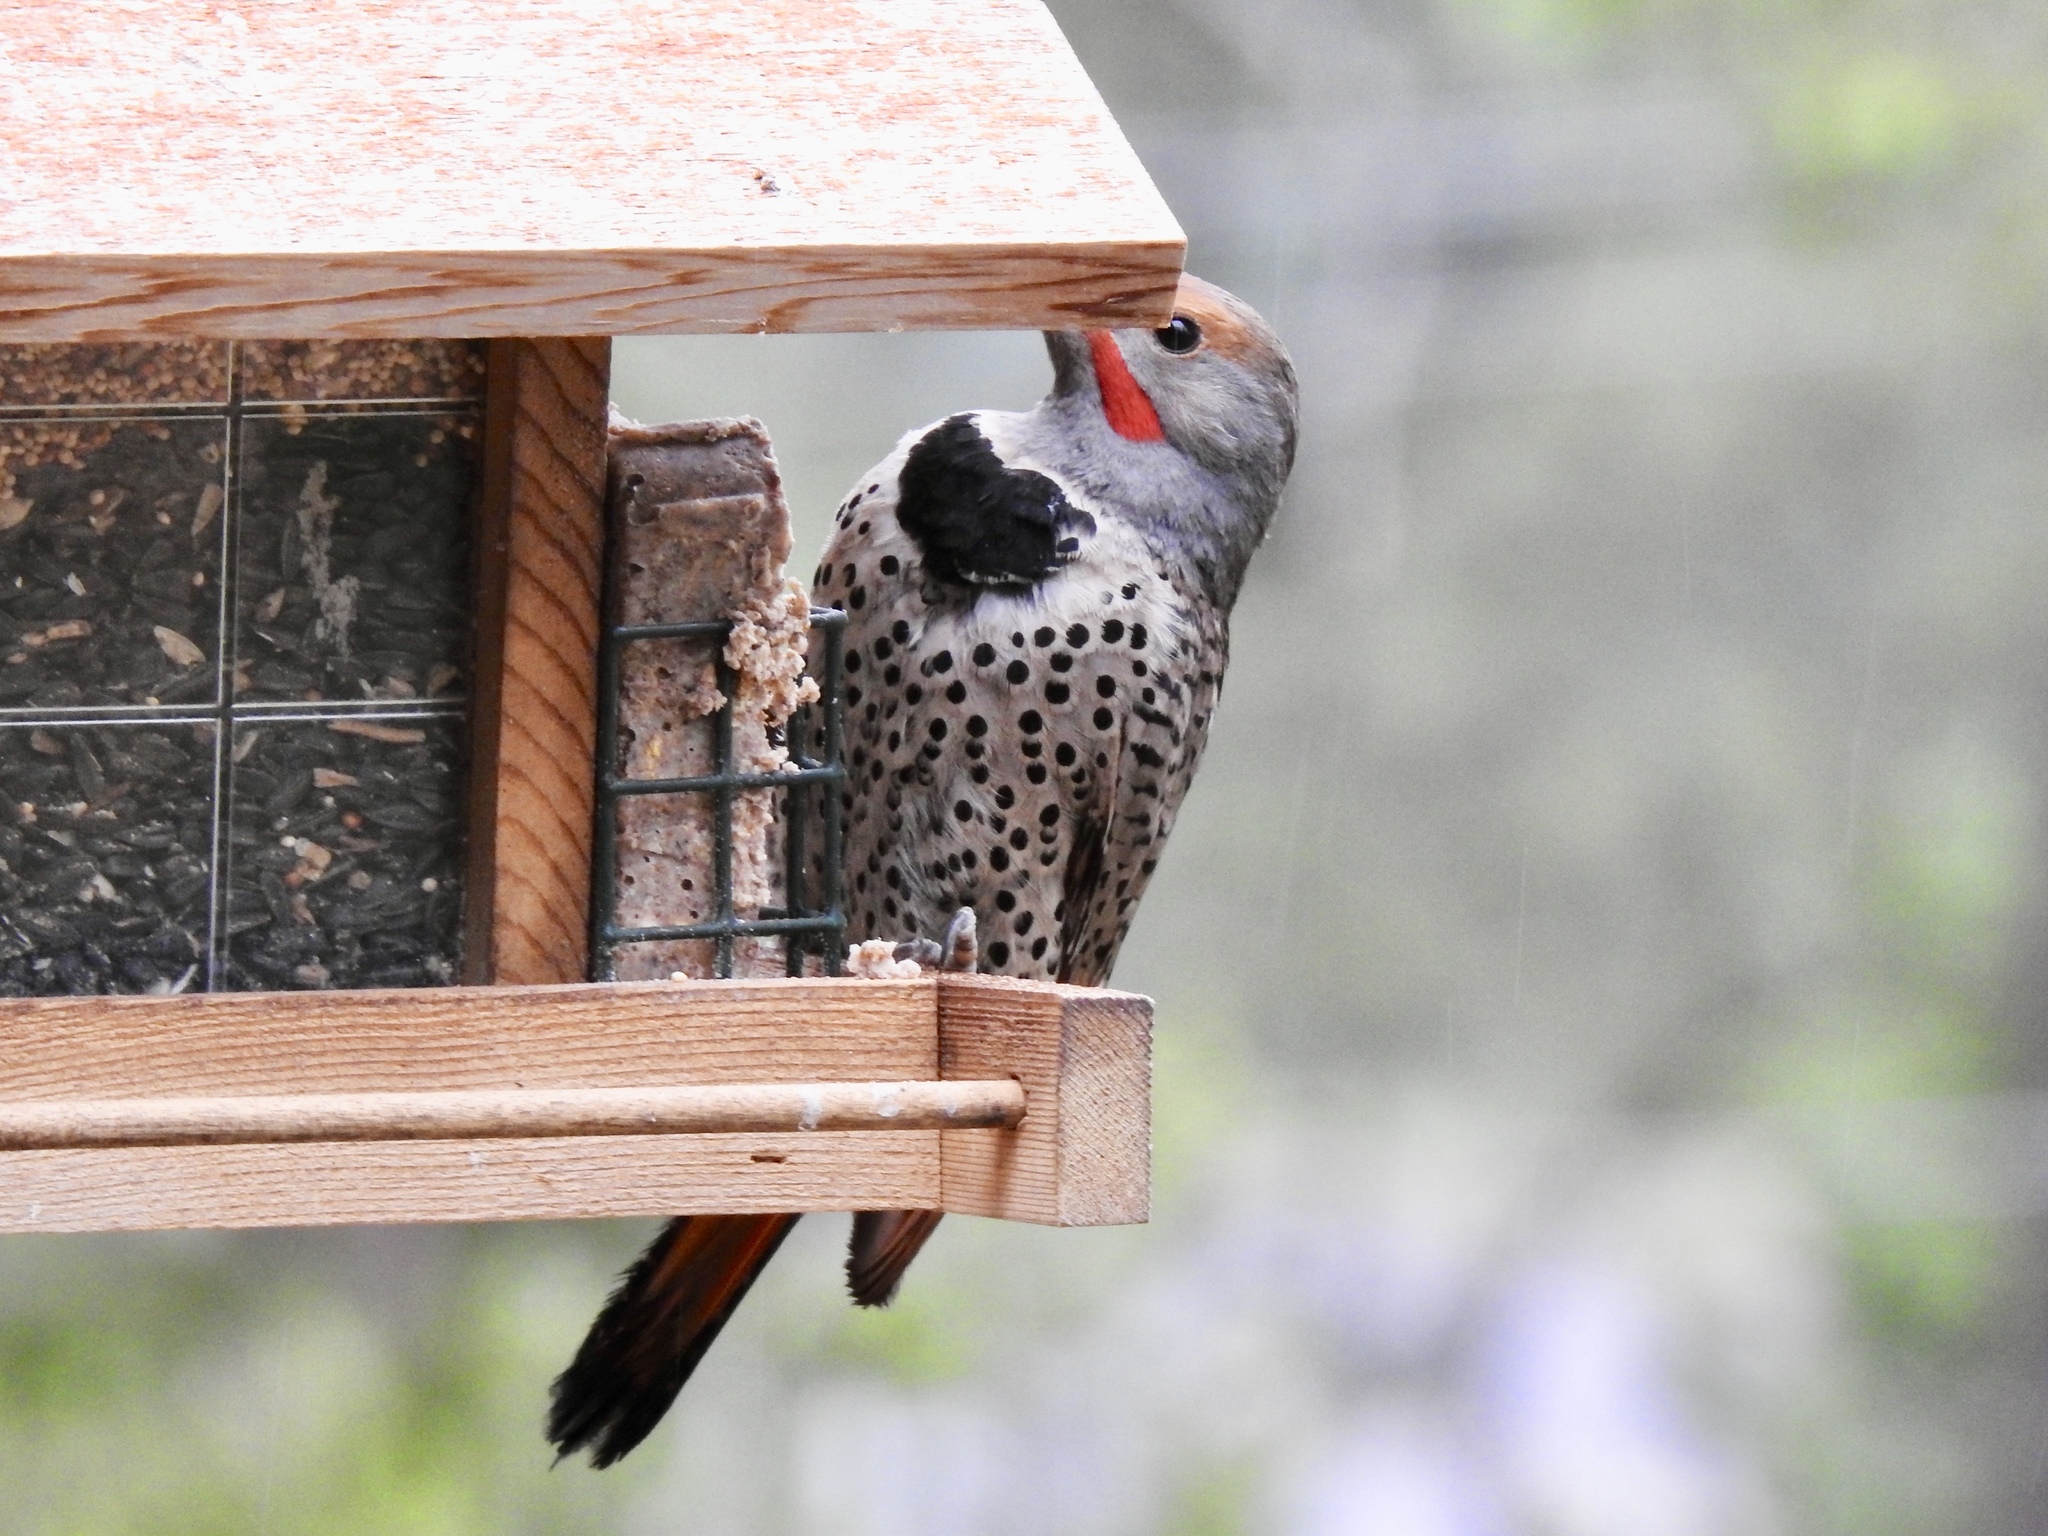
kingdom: Animalia
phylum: Chordata
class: Aves
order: Piciformes
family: Picidae
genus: Colaptes
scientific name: Colaptes auratus
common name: Northern flicker
